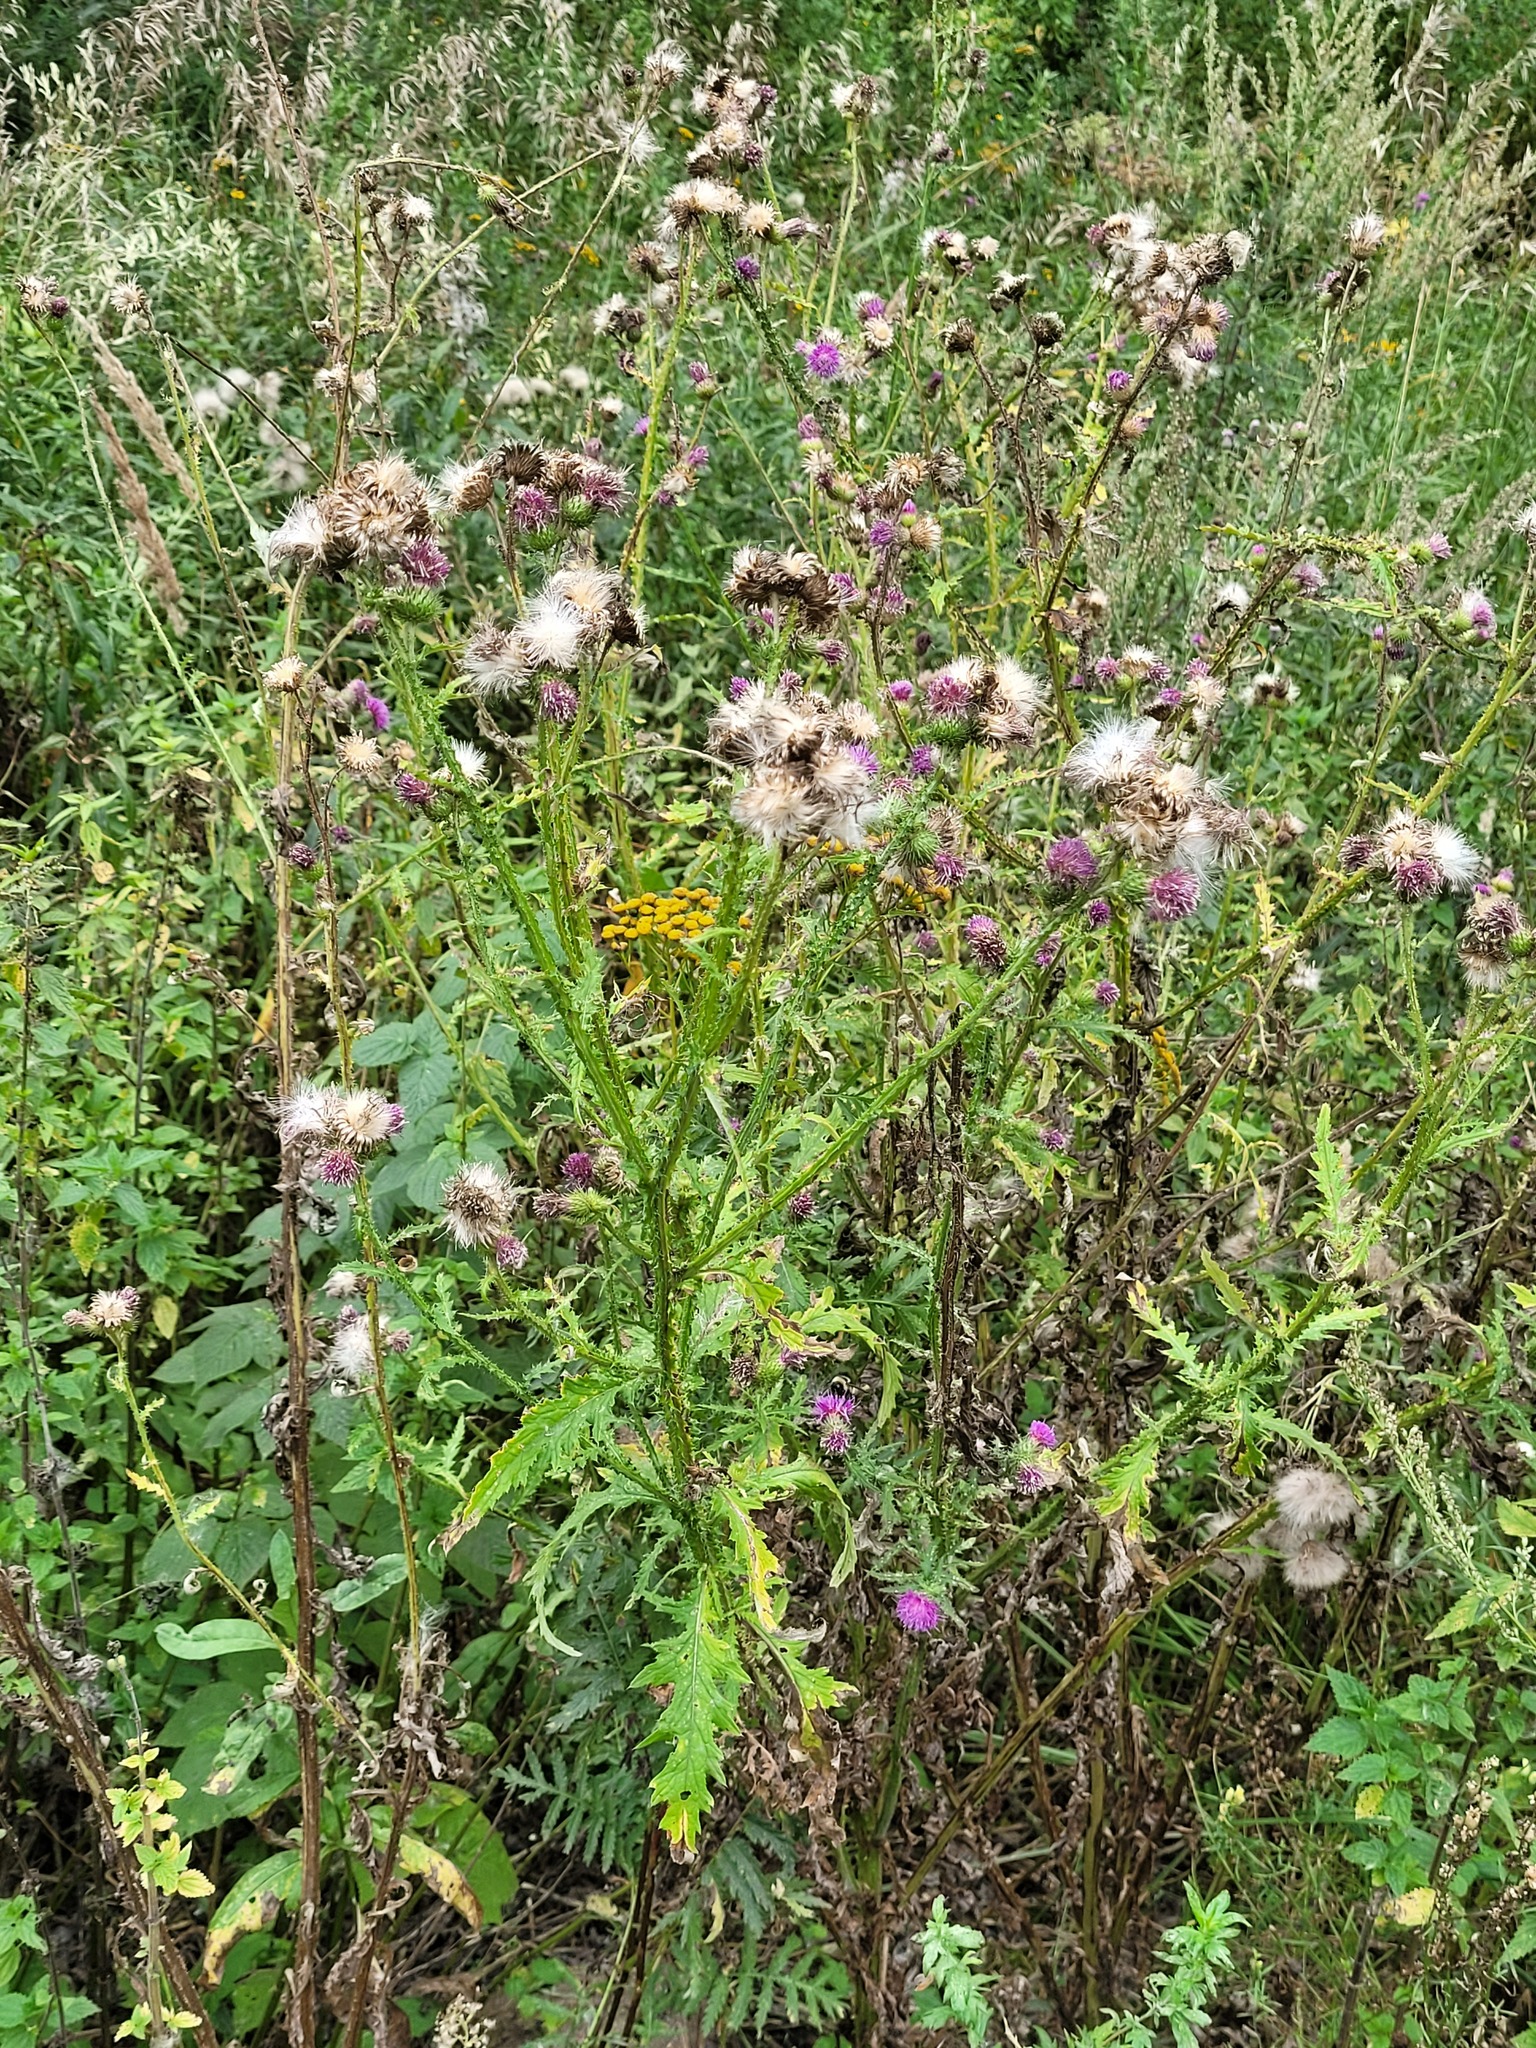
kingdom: Plantae
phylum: Tracheophyta
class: Magnoliopsida
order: Asterales
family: Asteraceae
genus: Carduus
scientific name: Carduus crispus
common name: Welted thistle
